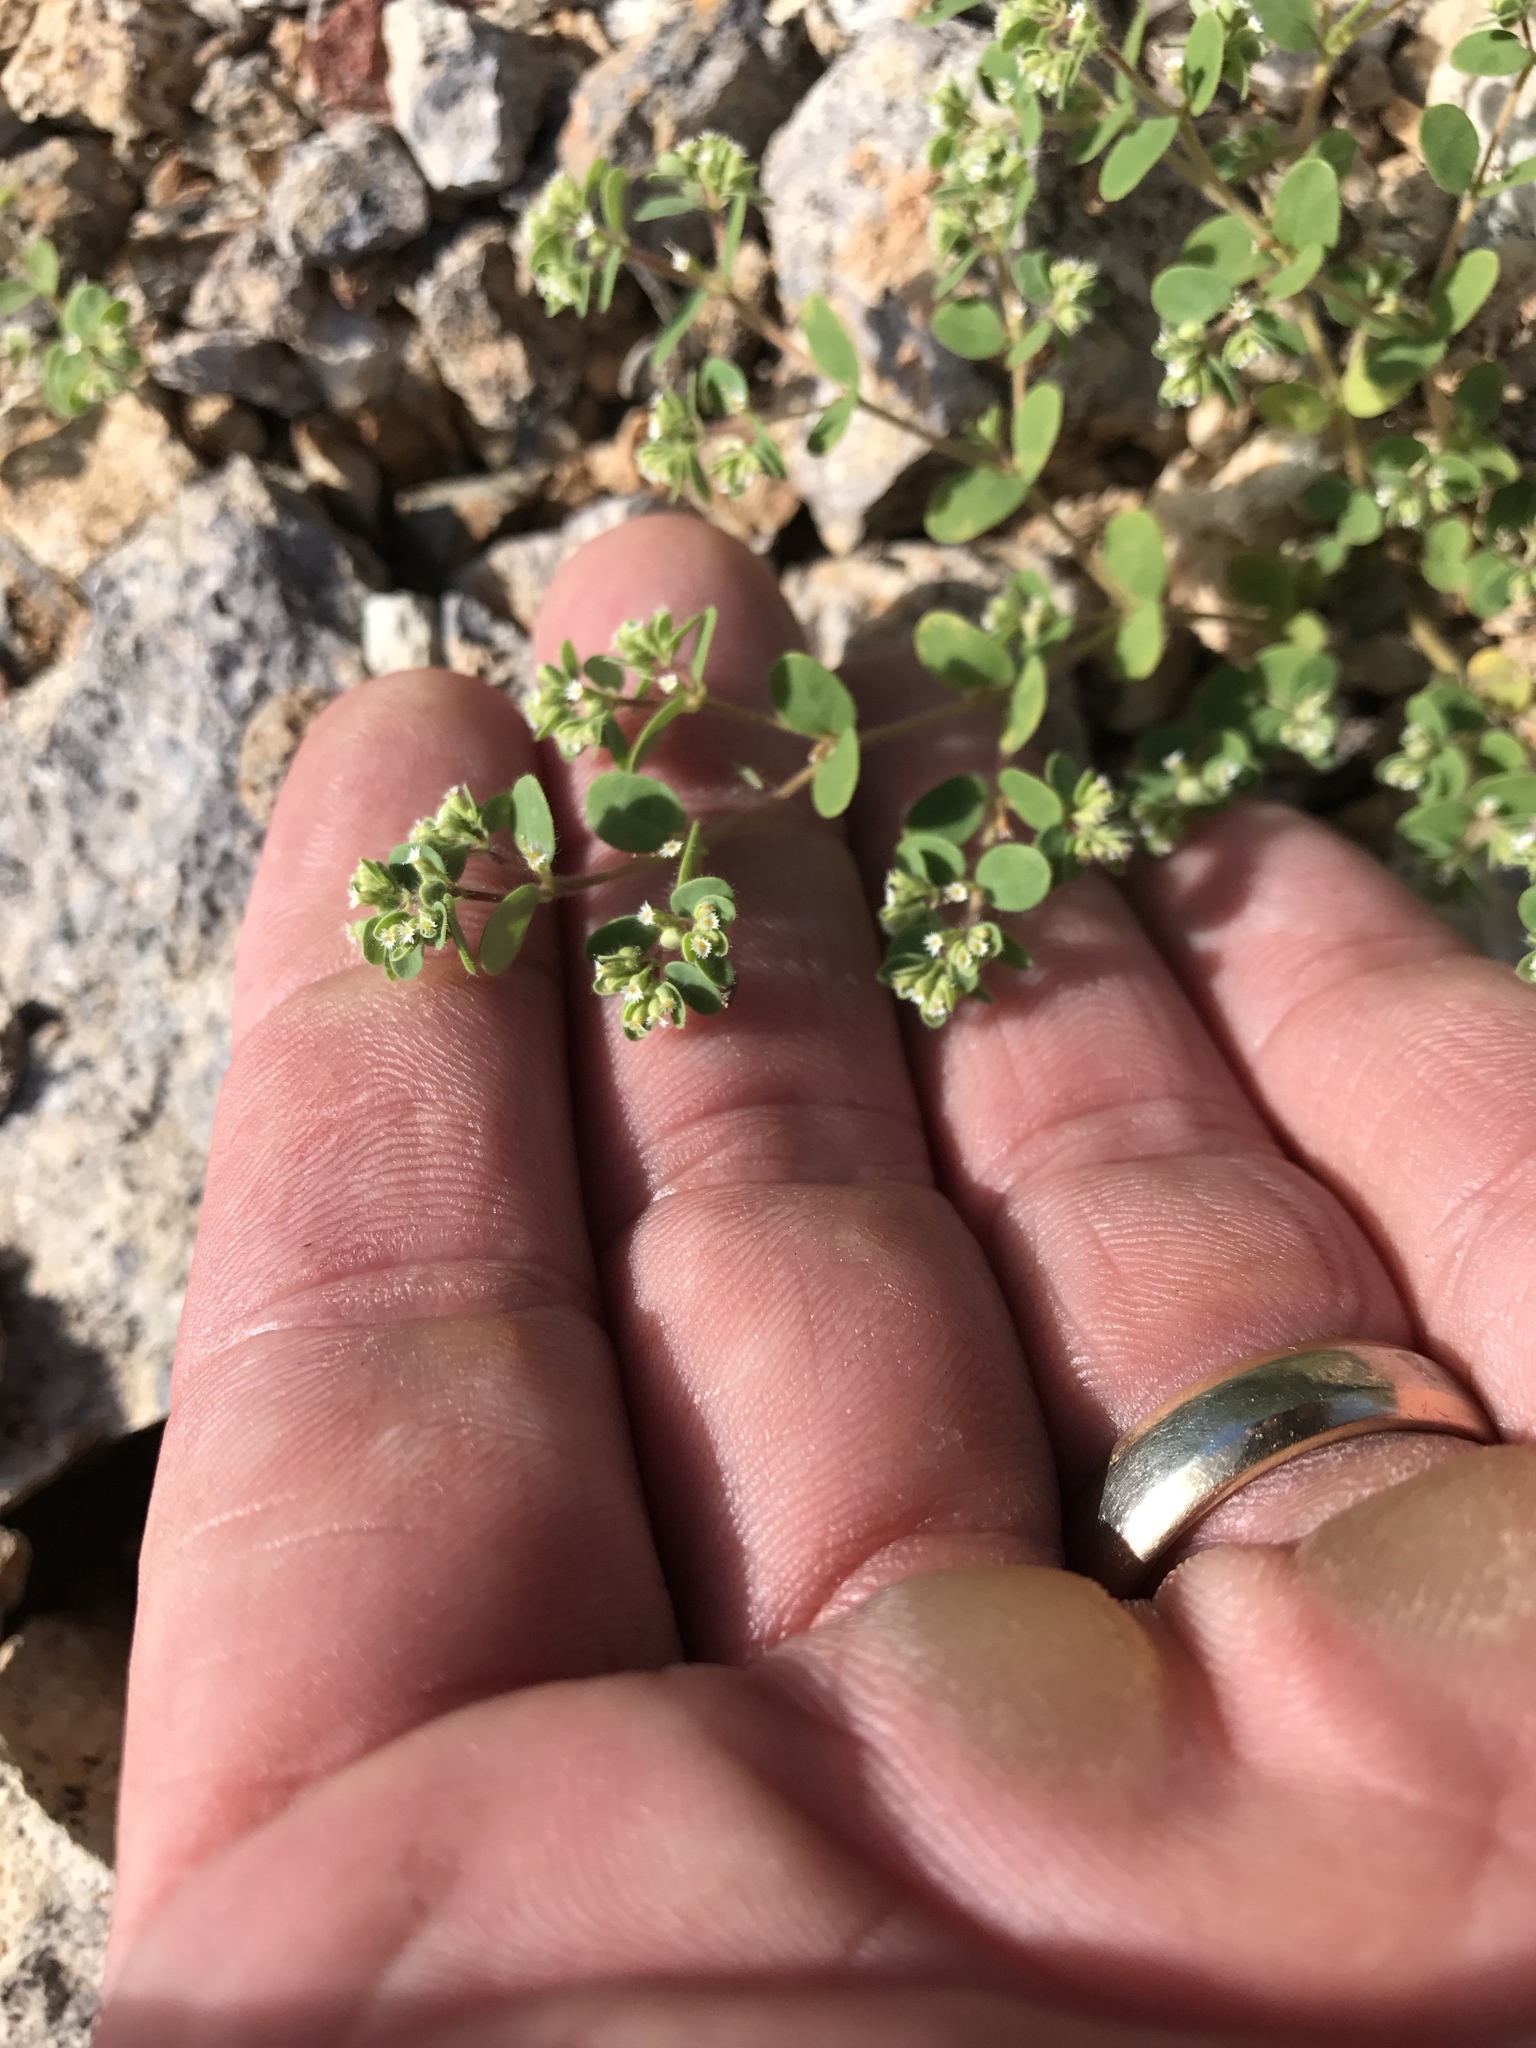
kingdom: Plantae
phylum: Tracheophyta
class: Magnoliopsida
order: Malpighiales
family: Euphorbiaceae
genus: Euphorbia
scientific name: Euphorbia setiloba
